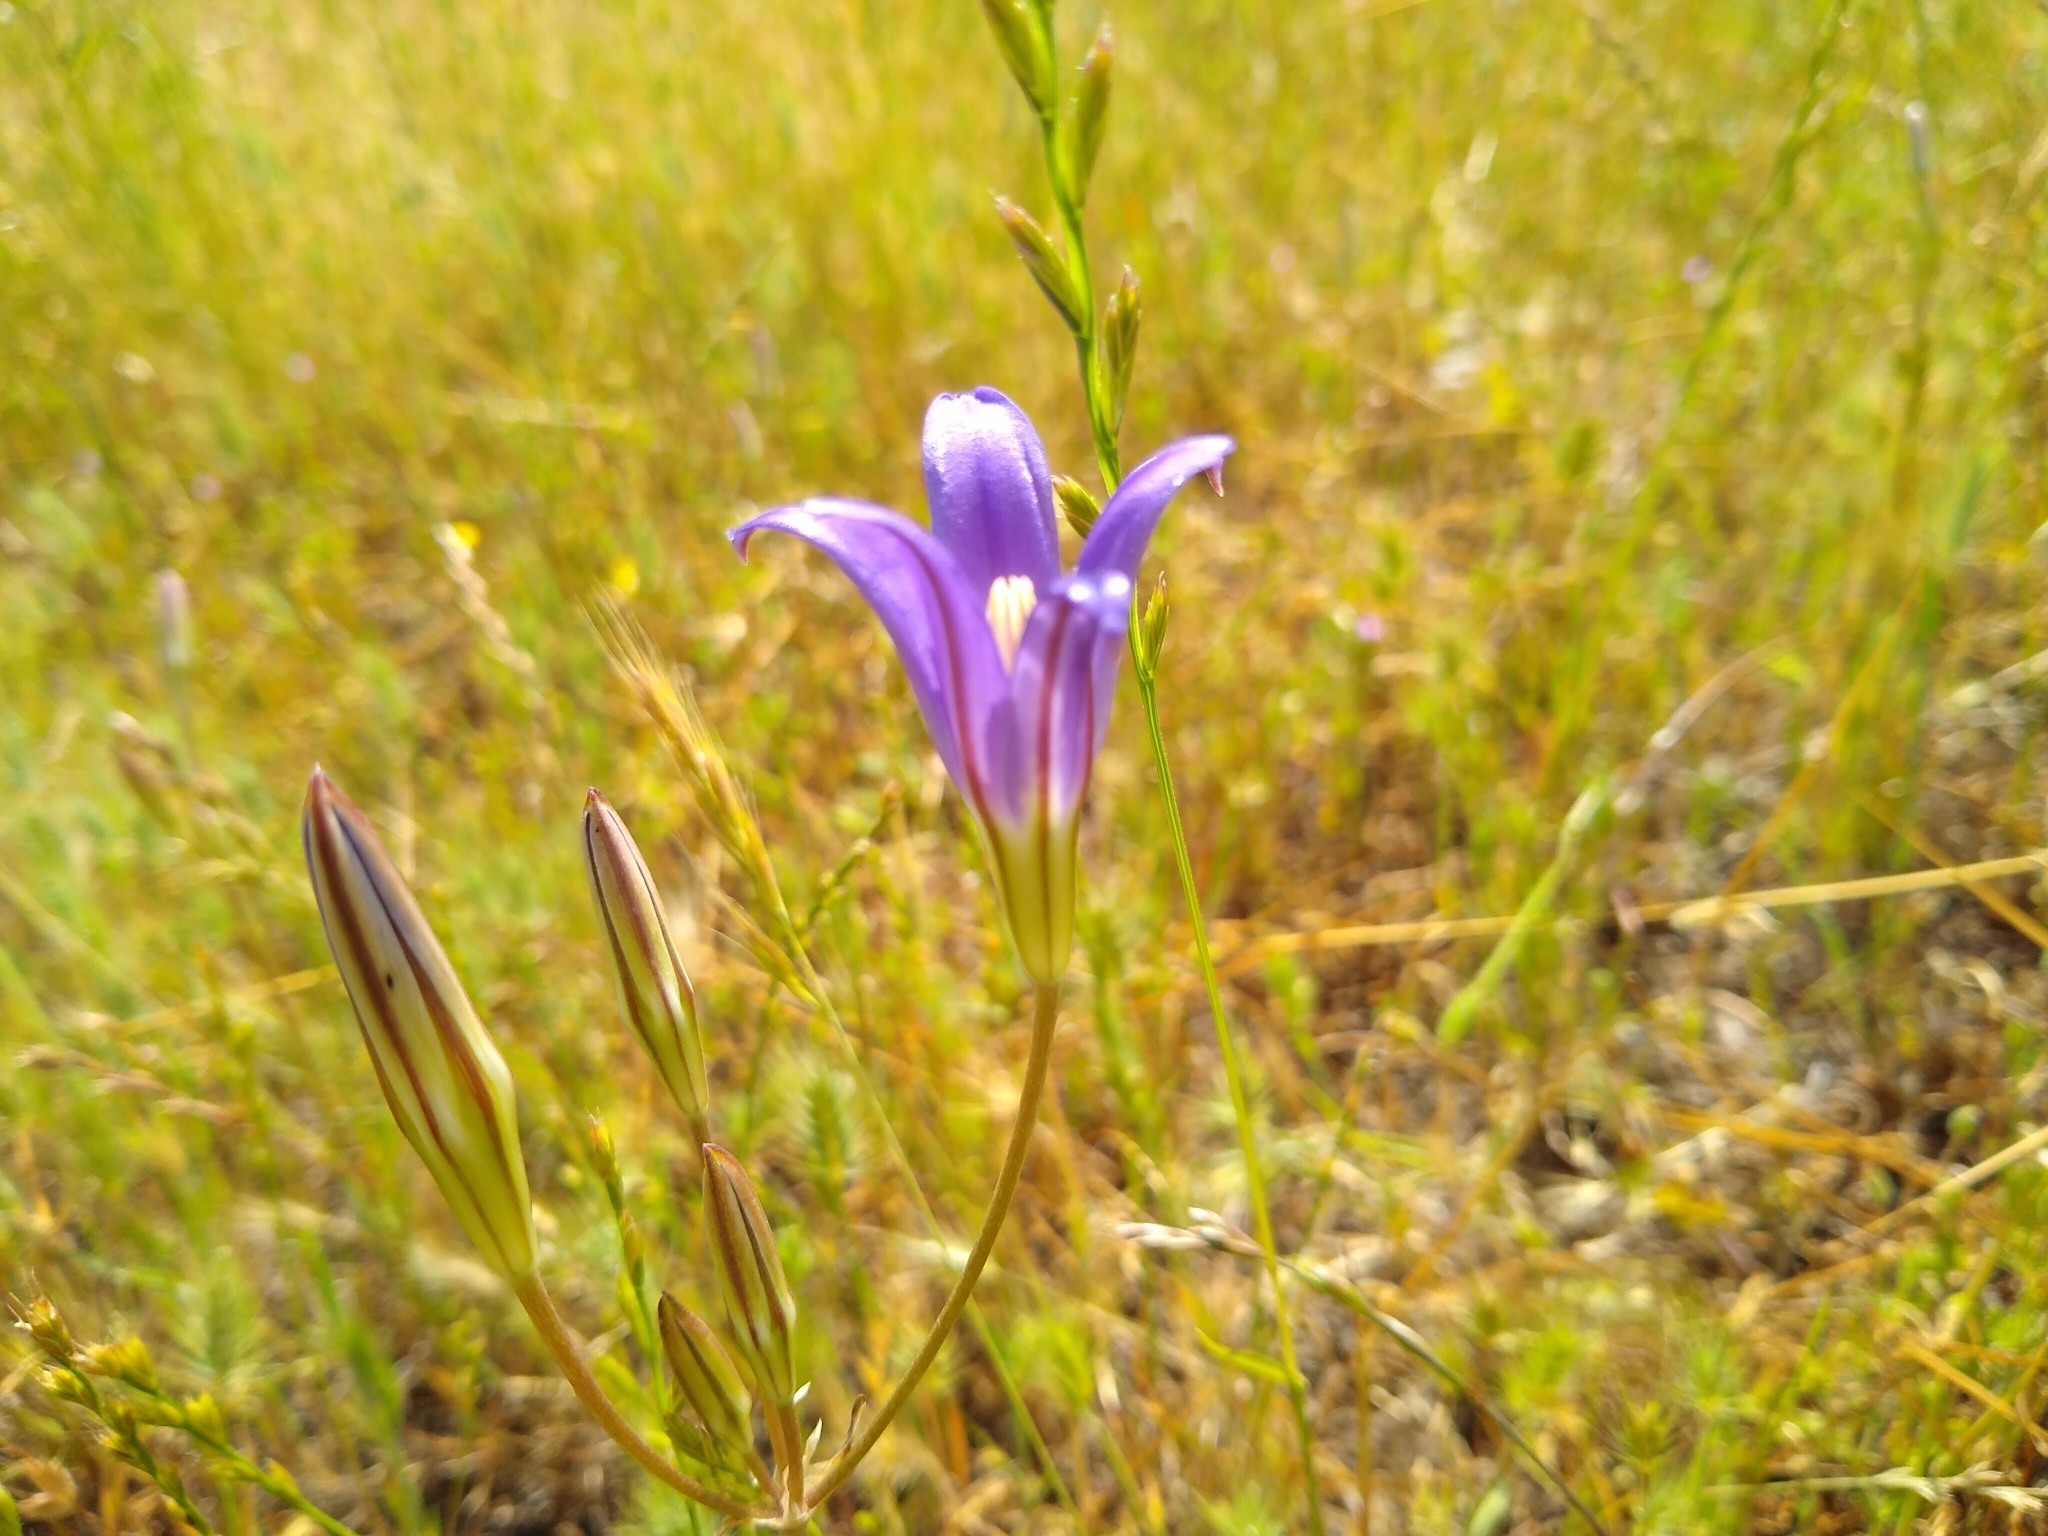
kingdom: Plantae
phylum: Tracheophyta
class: Liliopsida
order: Asparagales
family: Asparagaceae
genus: Brodiaea
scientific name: Brodiaea elegans
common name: Elegant cluster-lily
